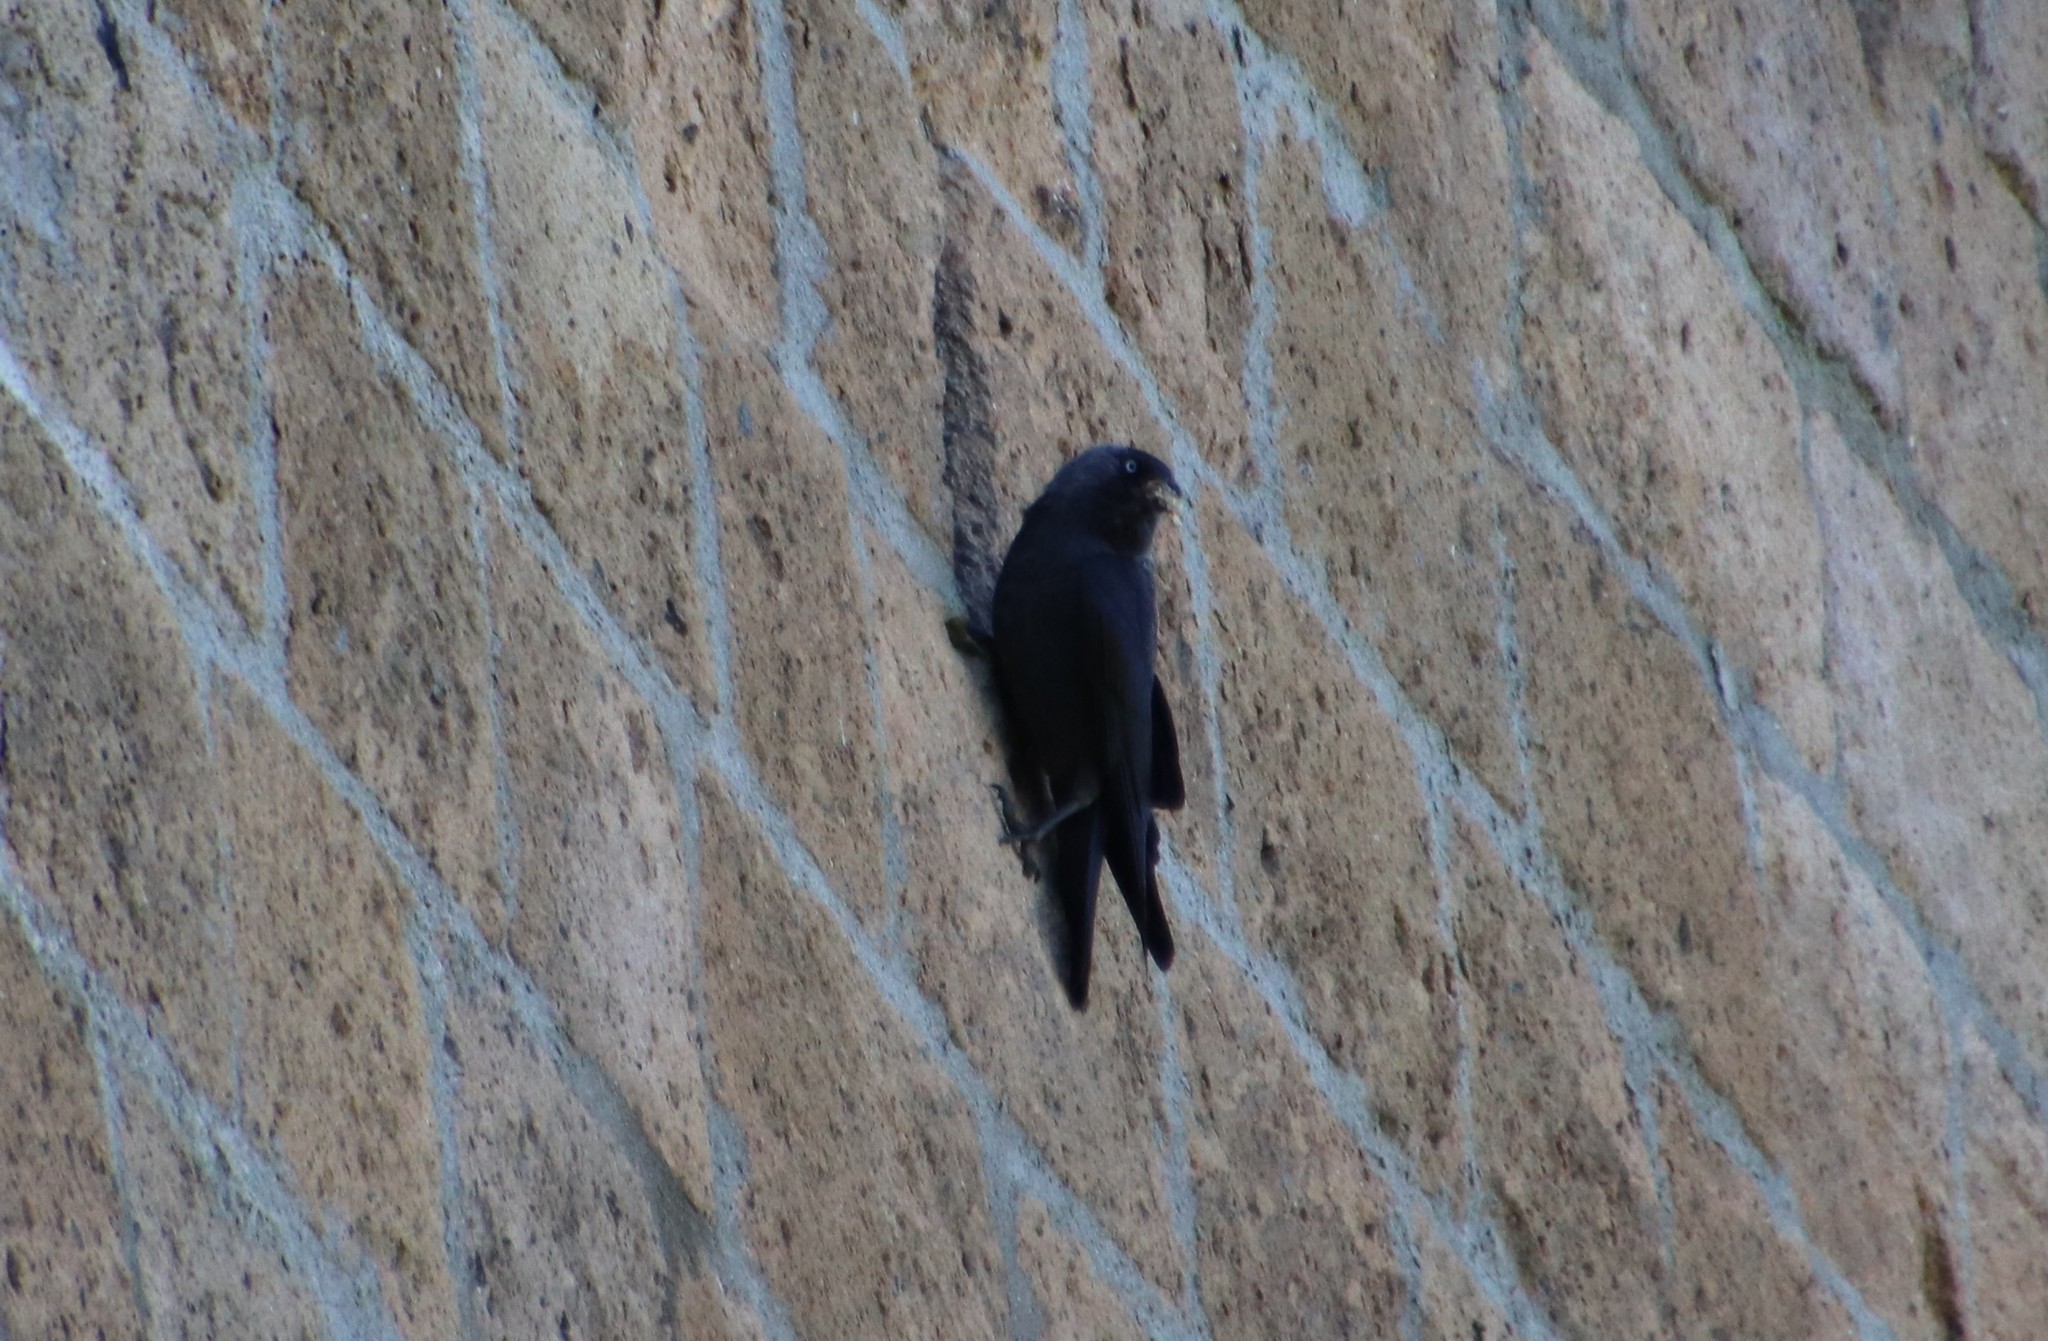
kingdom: Animalia
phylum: Chordata
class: Aves
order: Passeriformes
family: Corvidae
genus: Coloeus
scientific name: Coloeus monedula
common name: Western jackdaw
